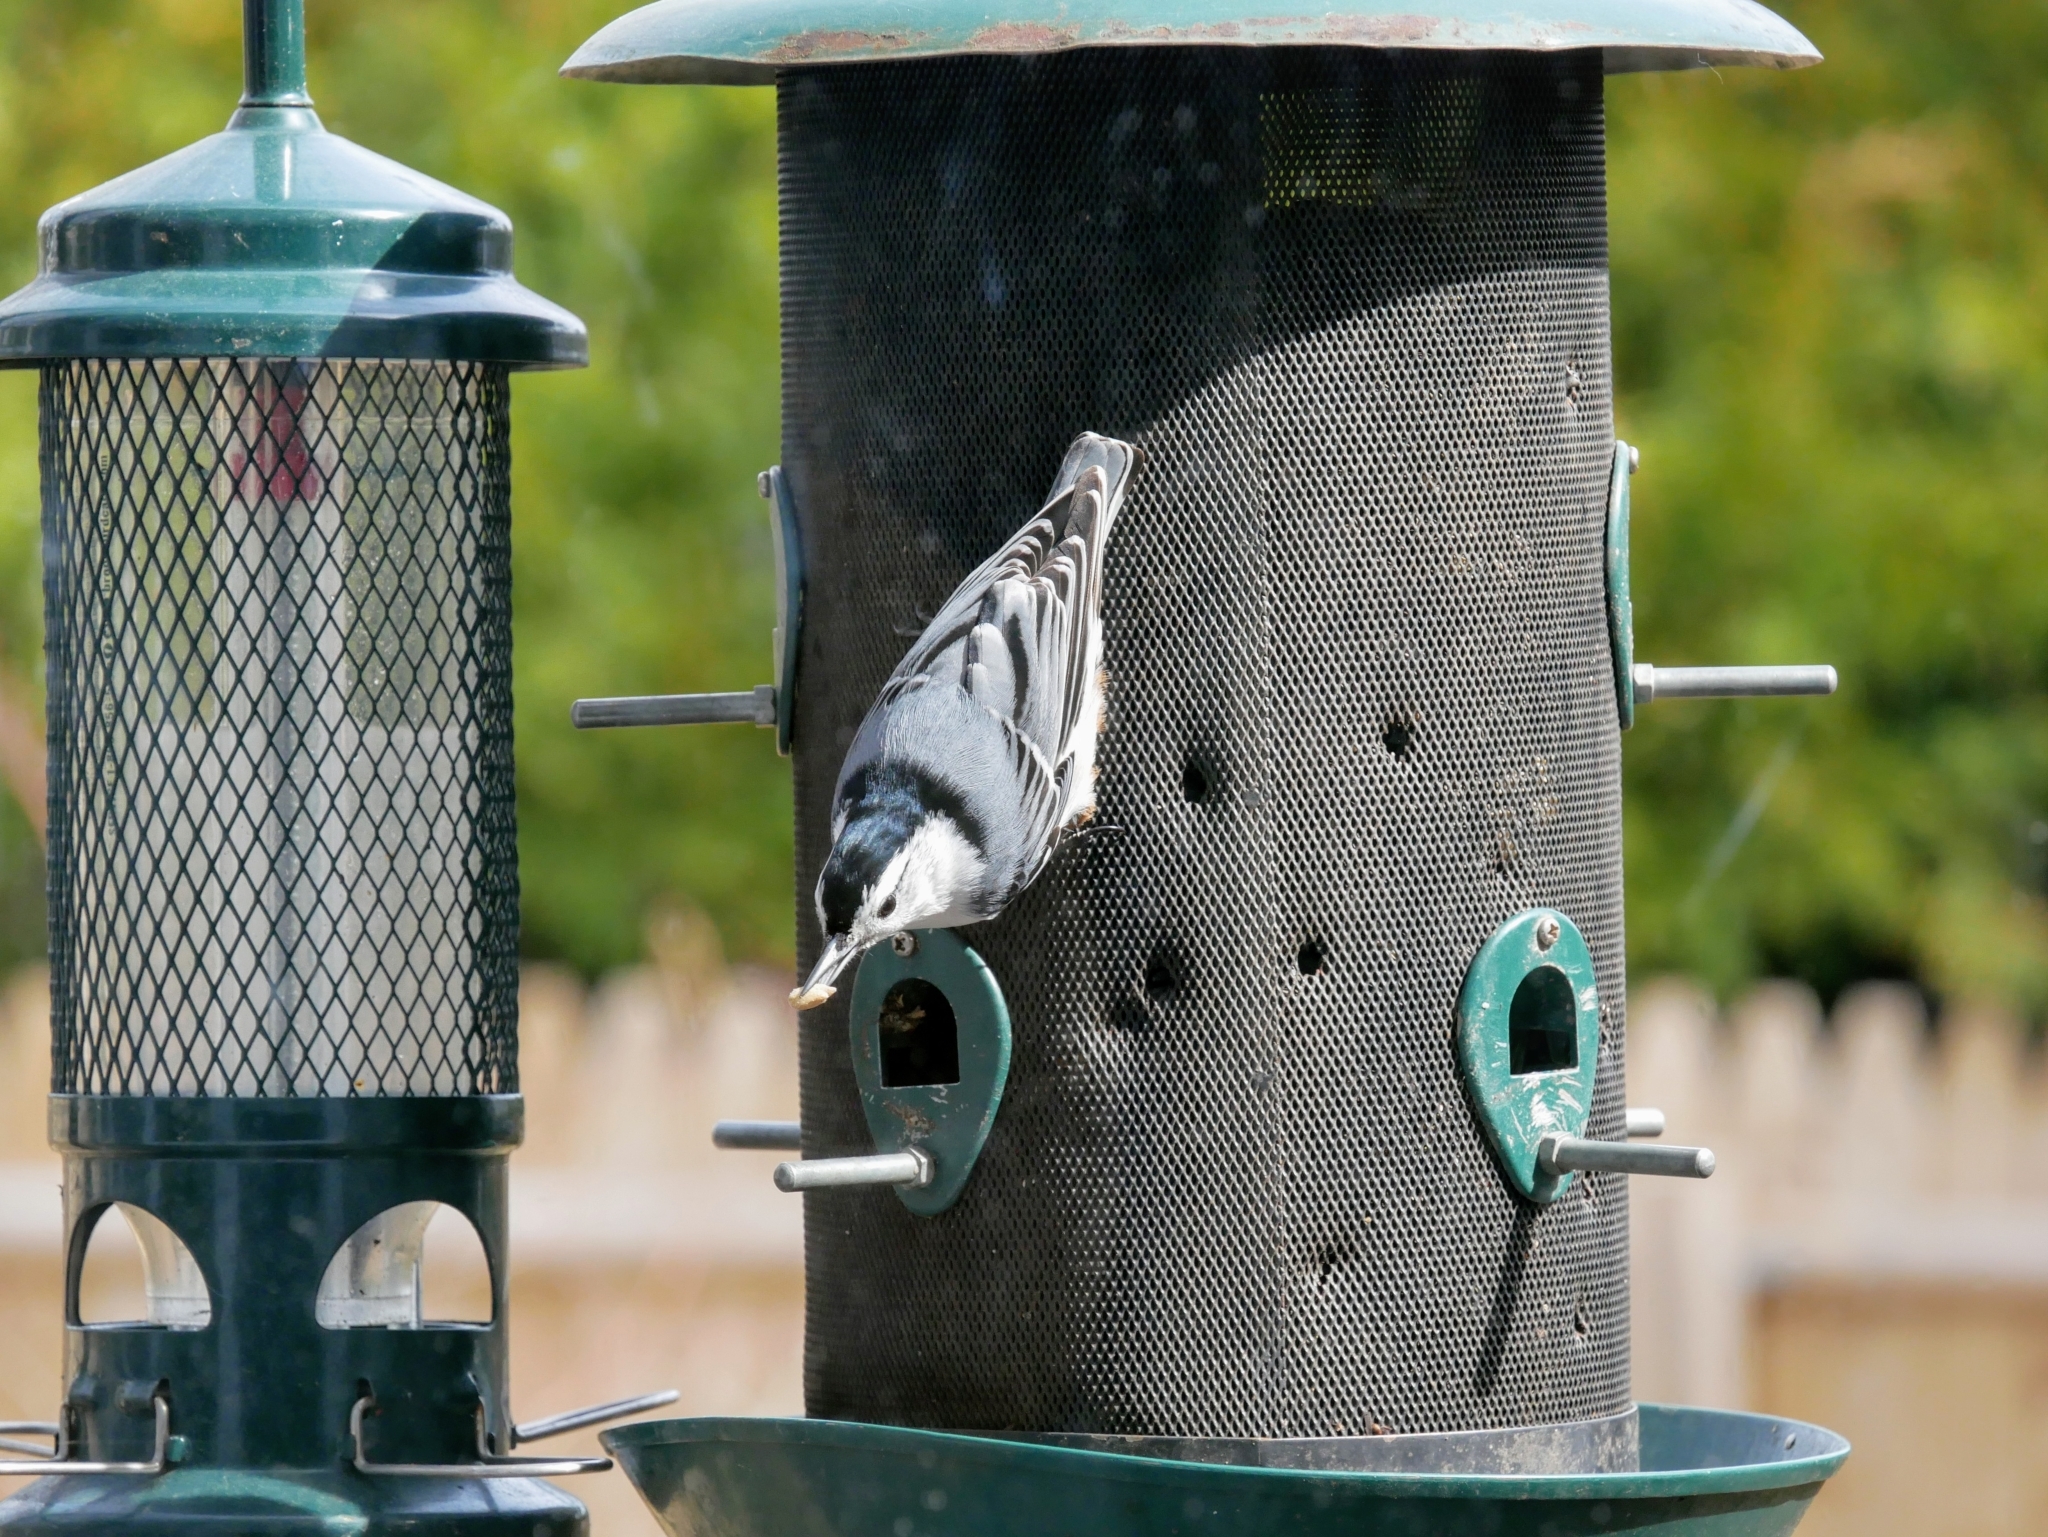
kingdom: Animalia
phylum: Chordata
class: Aves
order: Passeriformes
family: Sittidae
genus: Sitta
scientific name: Sitta carolinensis
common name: White-breasted nuthatch
